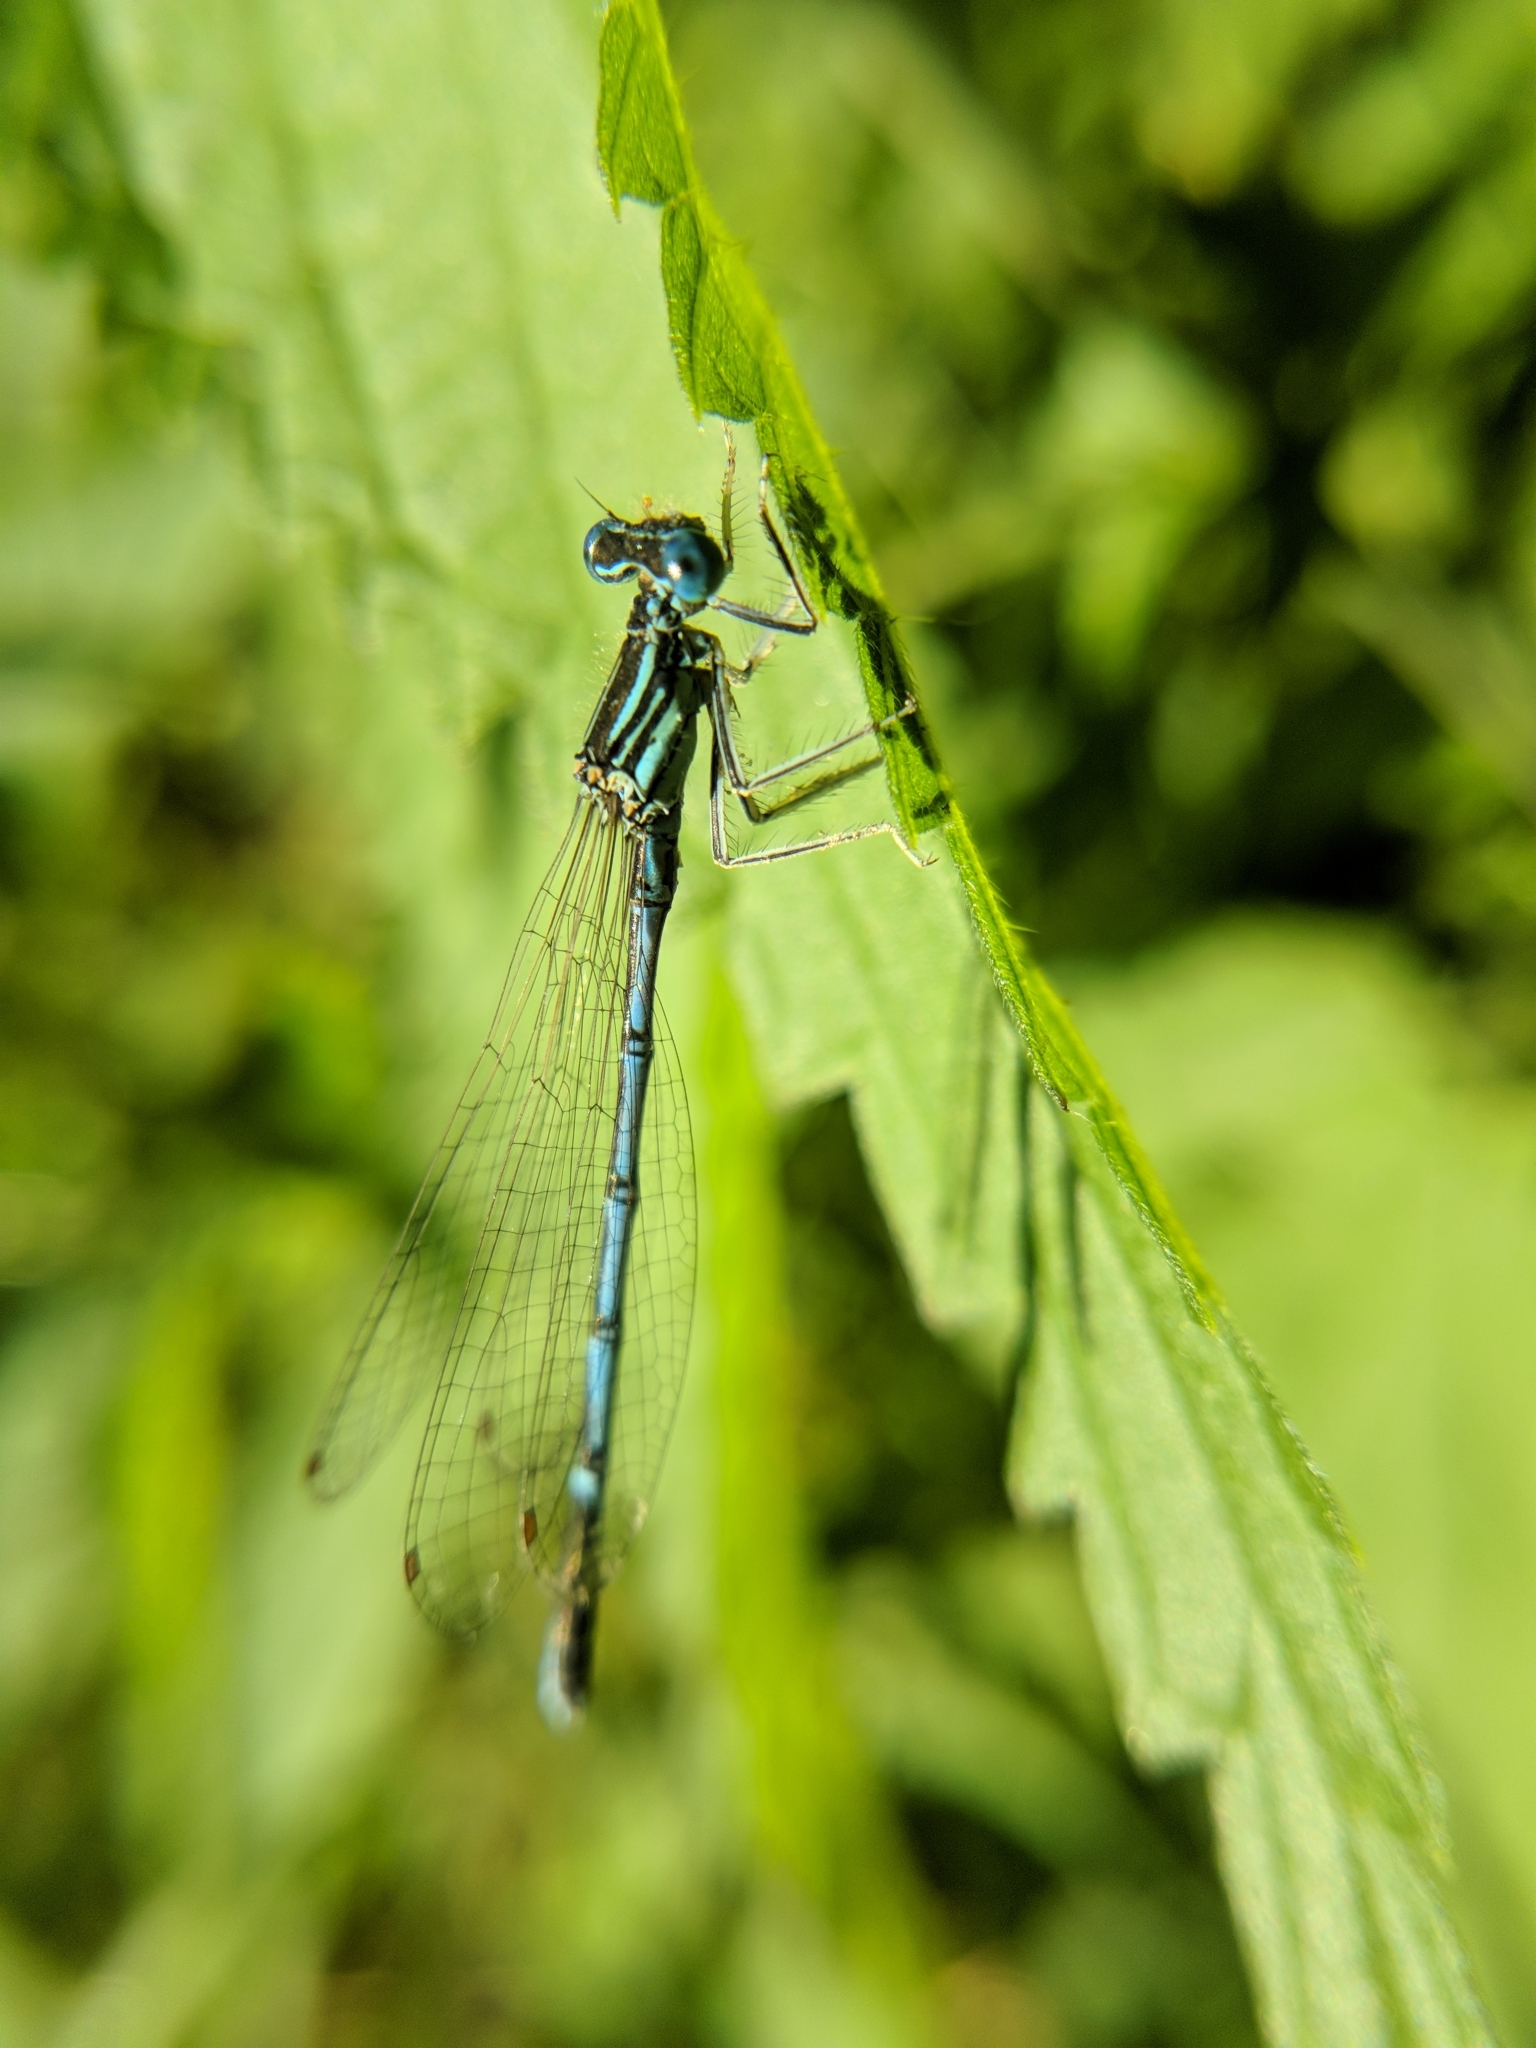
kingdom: Animalia
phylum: Arthropoda
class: Insecta
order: Odonata
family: Platycnemididae
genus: Platycnemis
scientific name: Platycnemis pennipes
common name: White-legged damselfly
